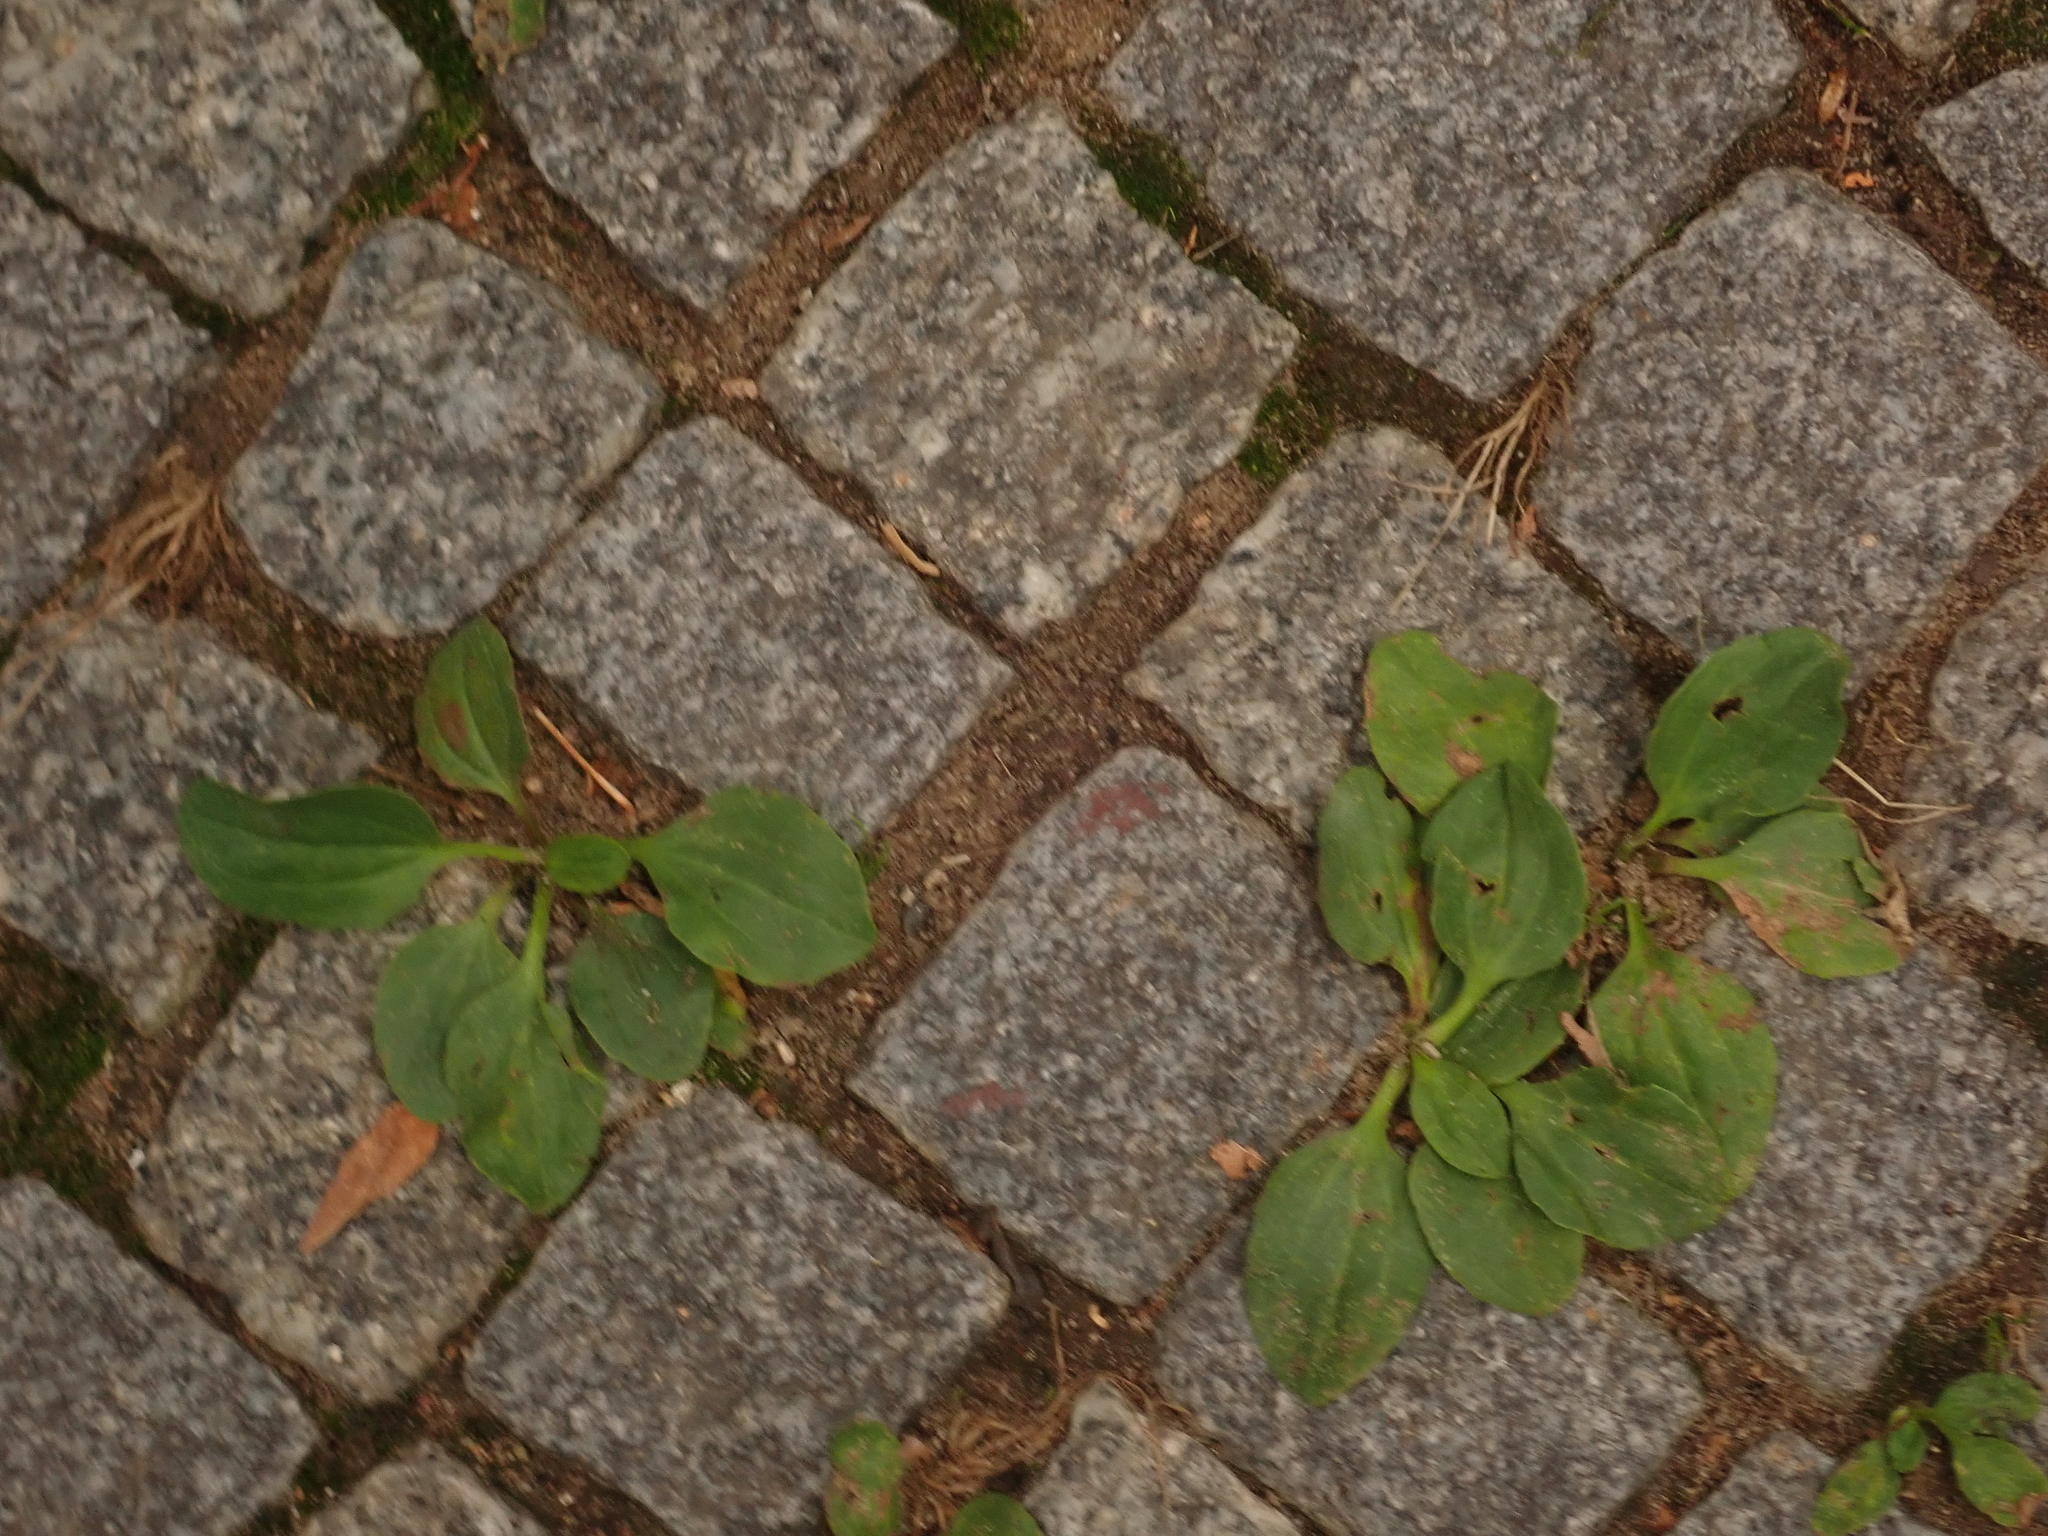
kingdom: Plantae
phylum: Tracheophyta
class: Magnoliopsida
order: Lamiales
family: Plantaginaceae
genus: Plantago
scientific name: Plantago major
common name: Common plantain
